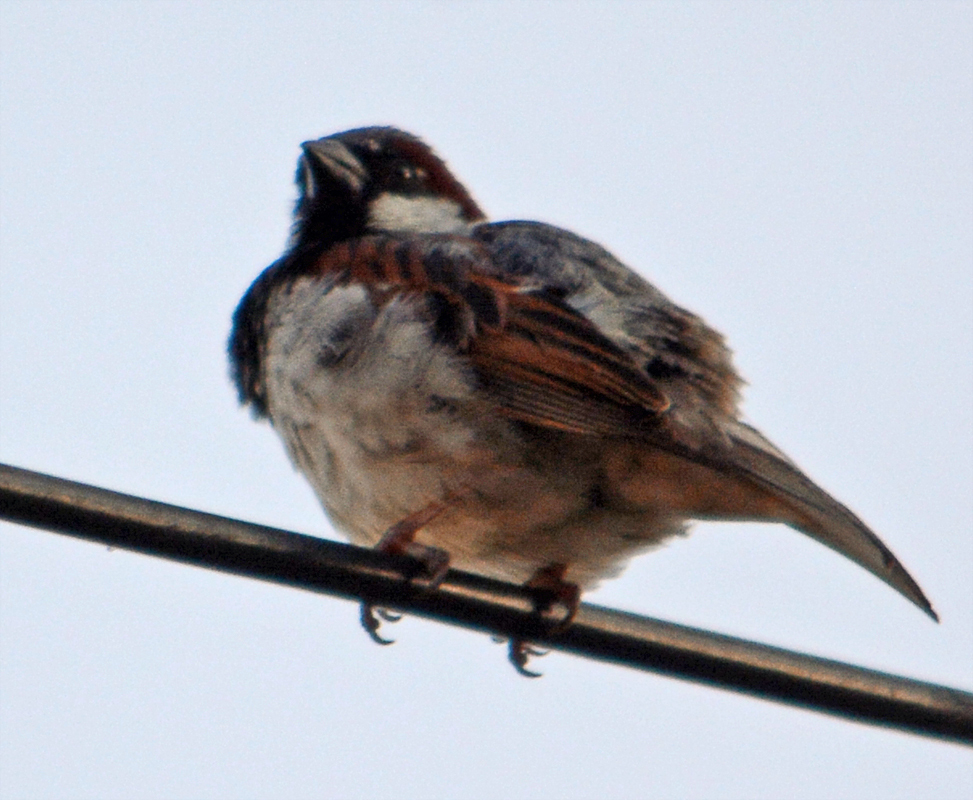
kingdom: Animalia
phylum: Chordata
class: Aves
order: Passeriformes
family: Passeridae
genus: Passer
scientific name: Passer domesticus
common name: House sparrow
